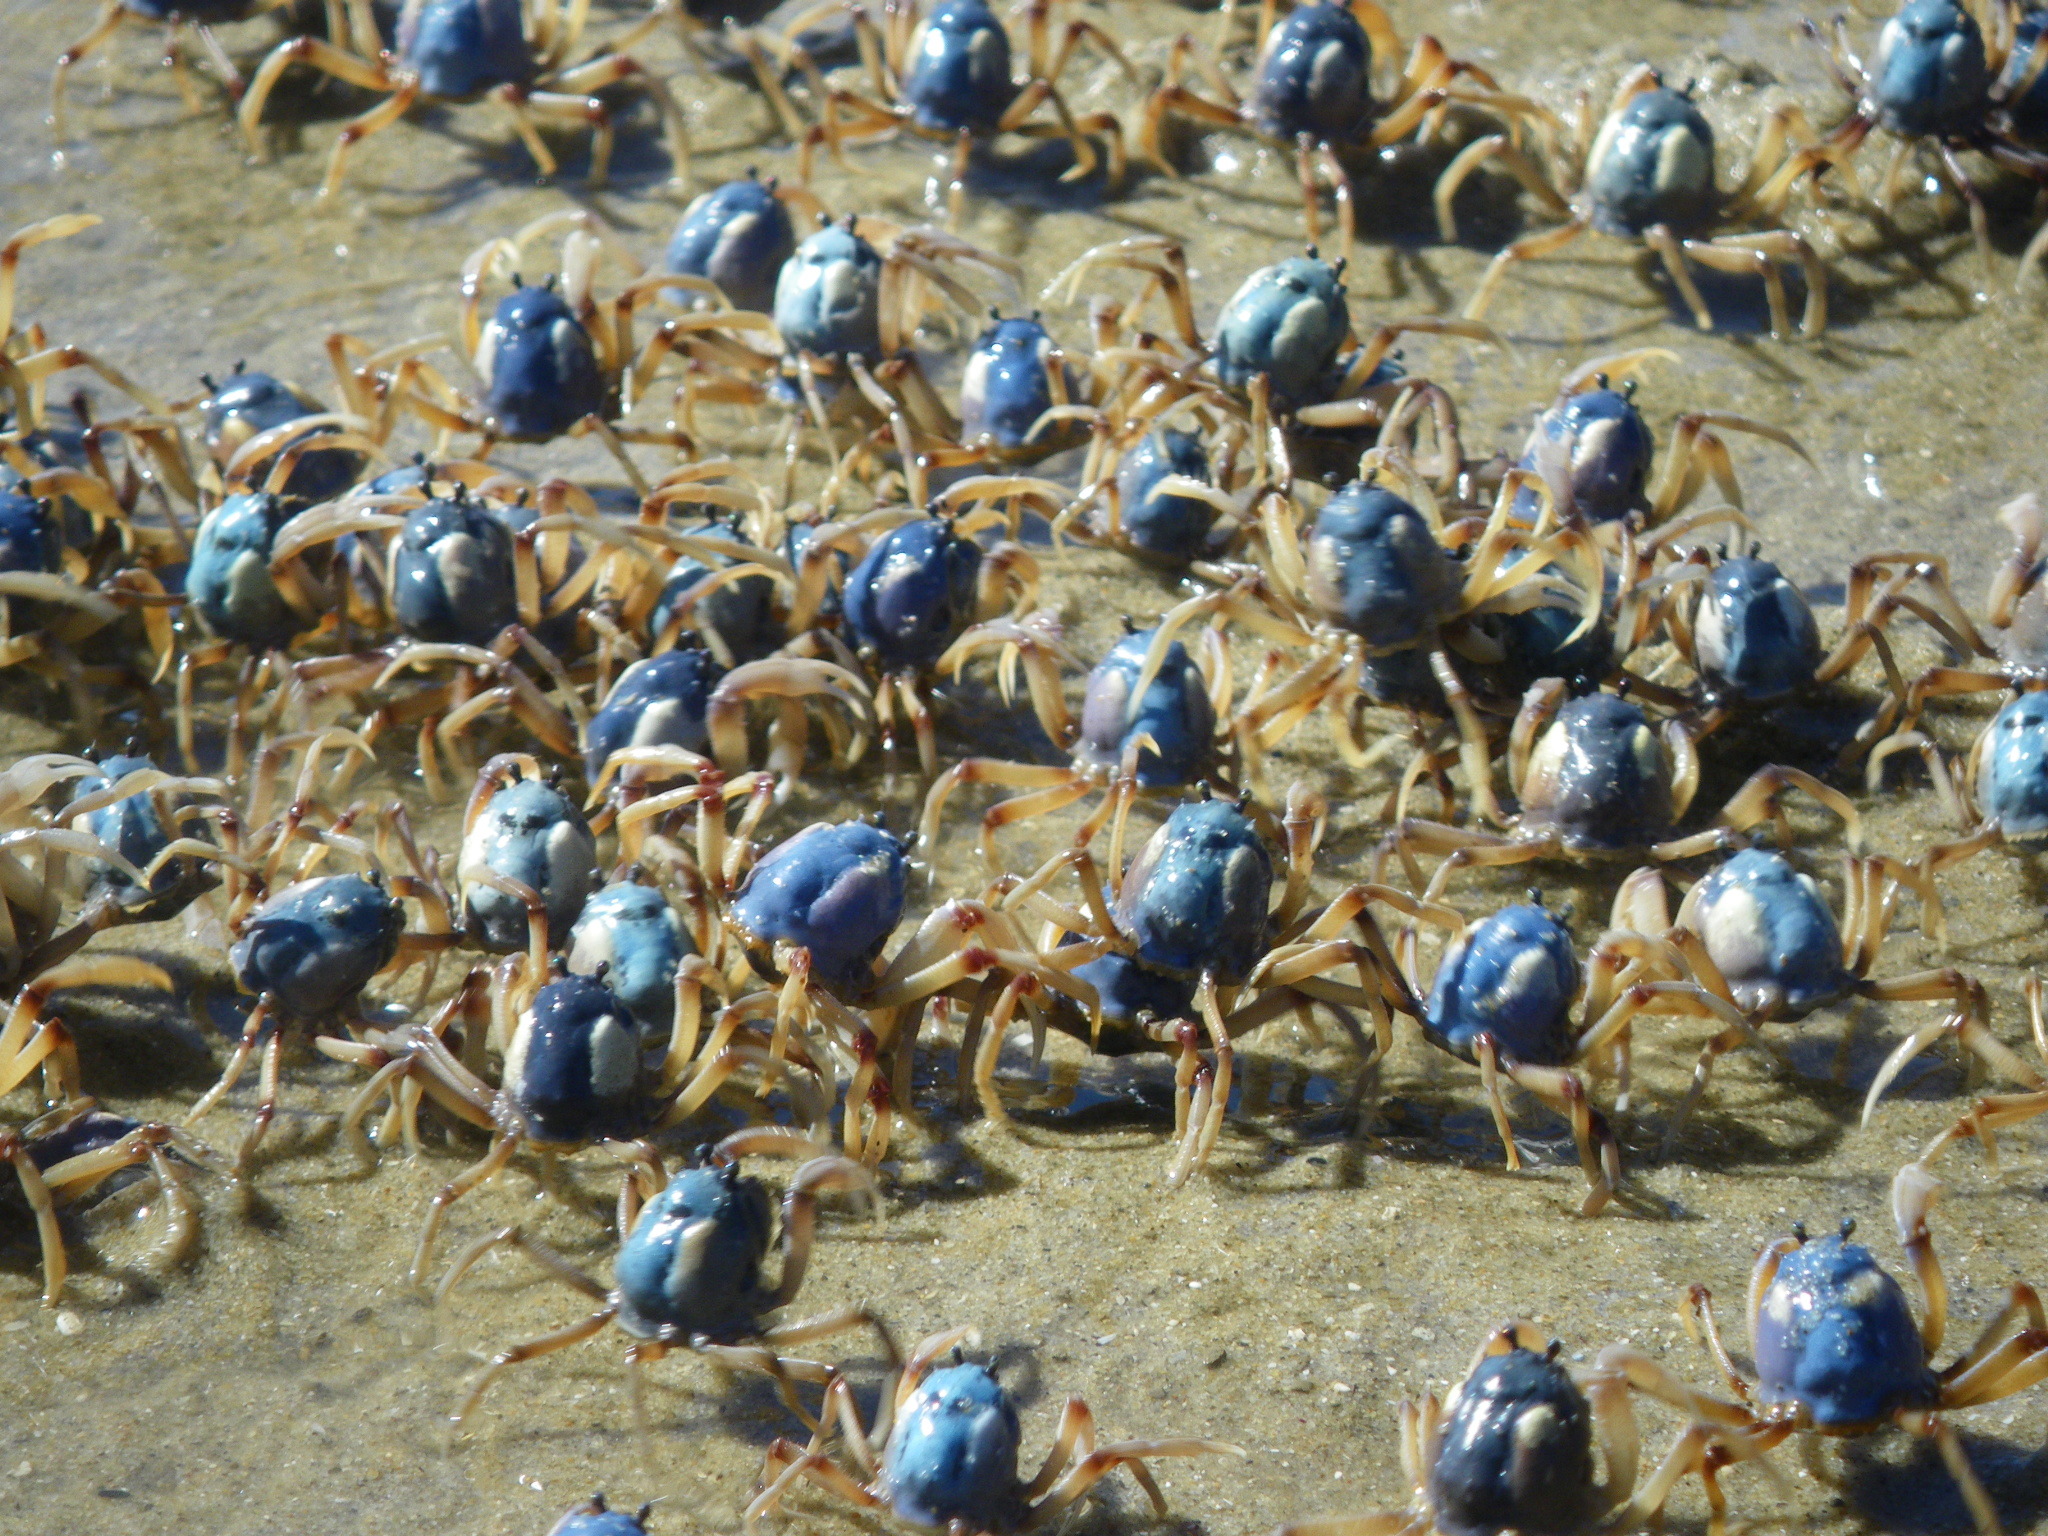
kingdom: Animalia
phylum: Arthropoda
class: Malacostraca
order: Decapoda
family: Mictyridae
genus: Mictyris
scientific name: Mictyris longicarpus
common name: Light-blue soldier crab
